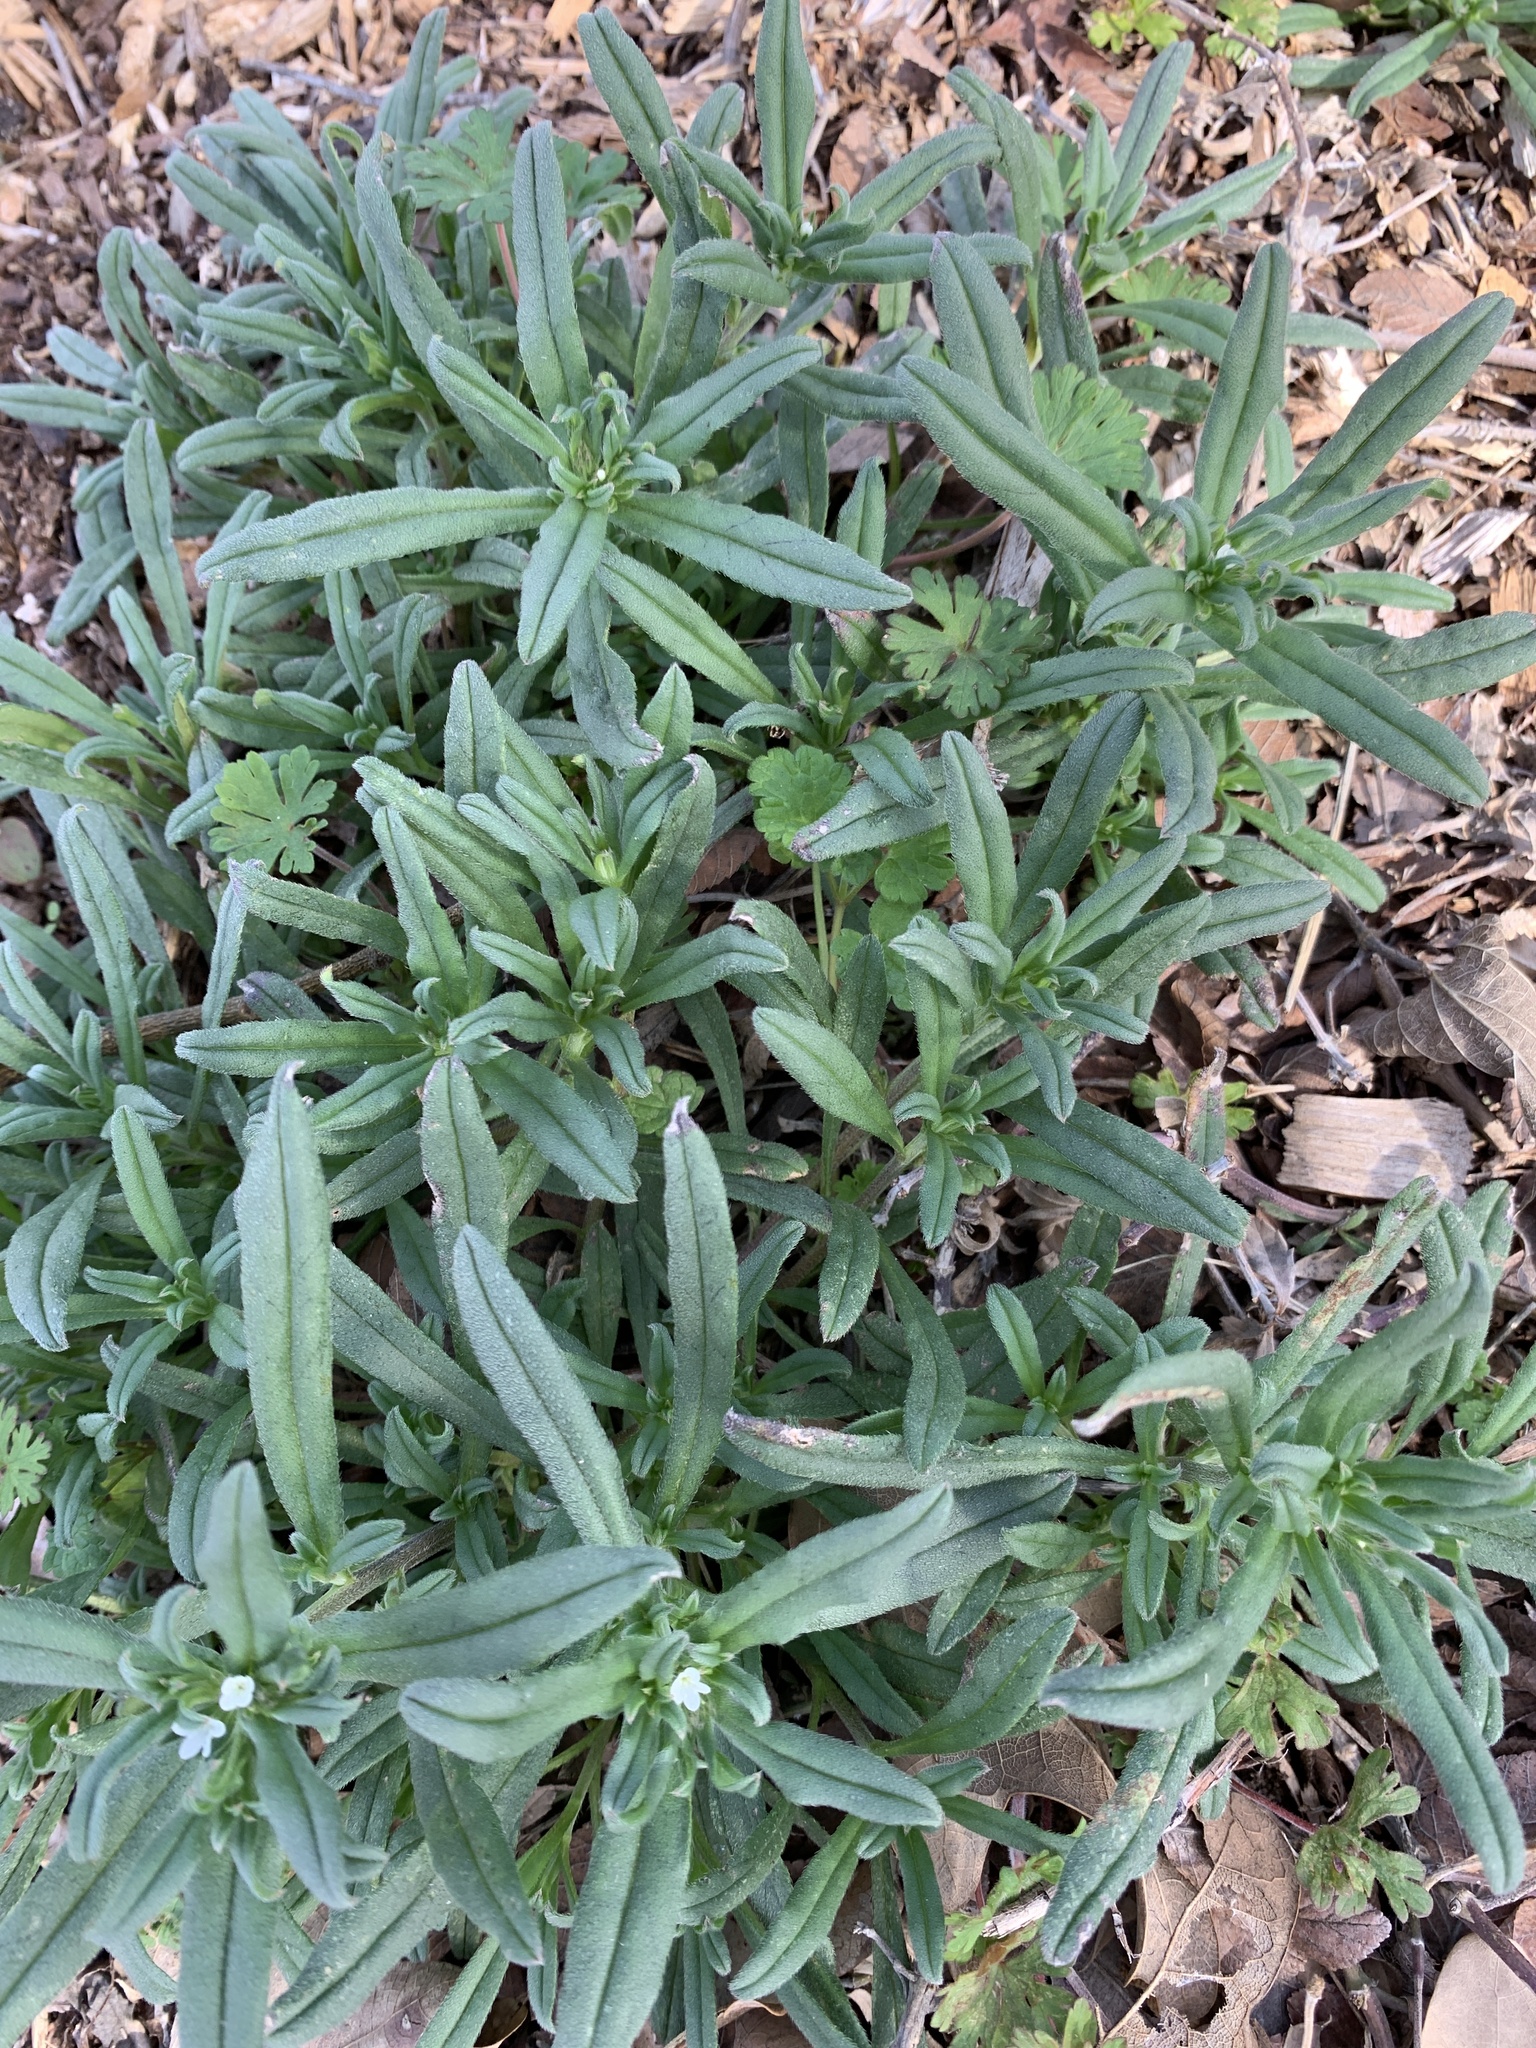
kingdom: Plantae
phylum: Tracheophyta
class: Magnoliopsida
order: Boraginales
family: Boraginaceae
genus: Buglossoides
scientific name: Buglossoides arvensis
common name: Corn gromwell
